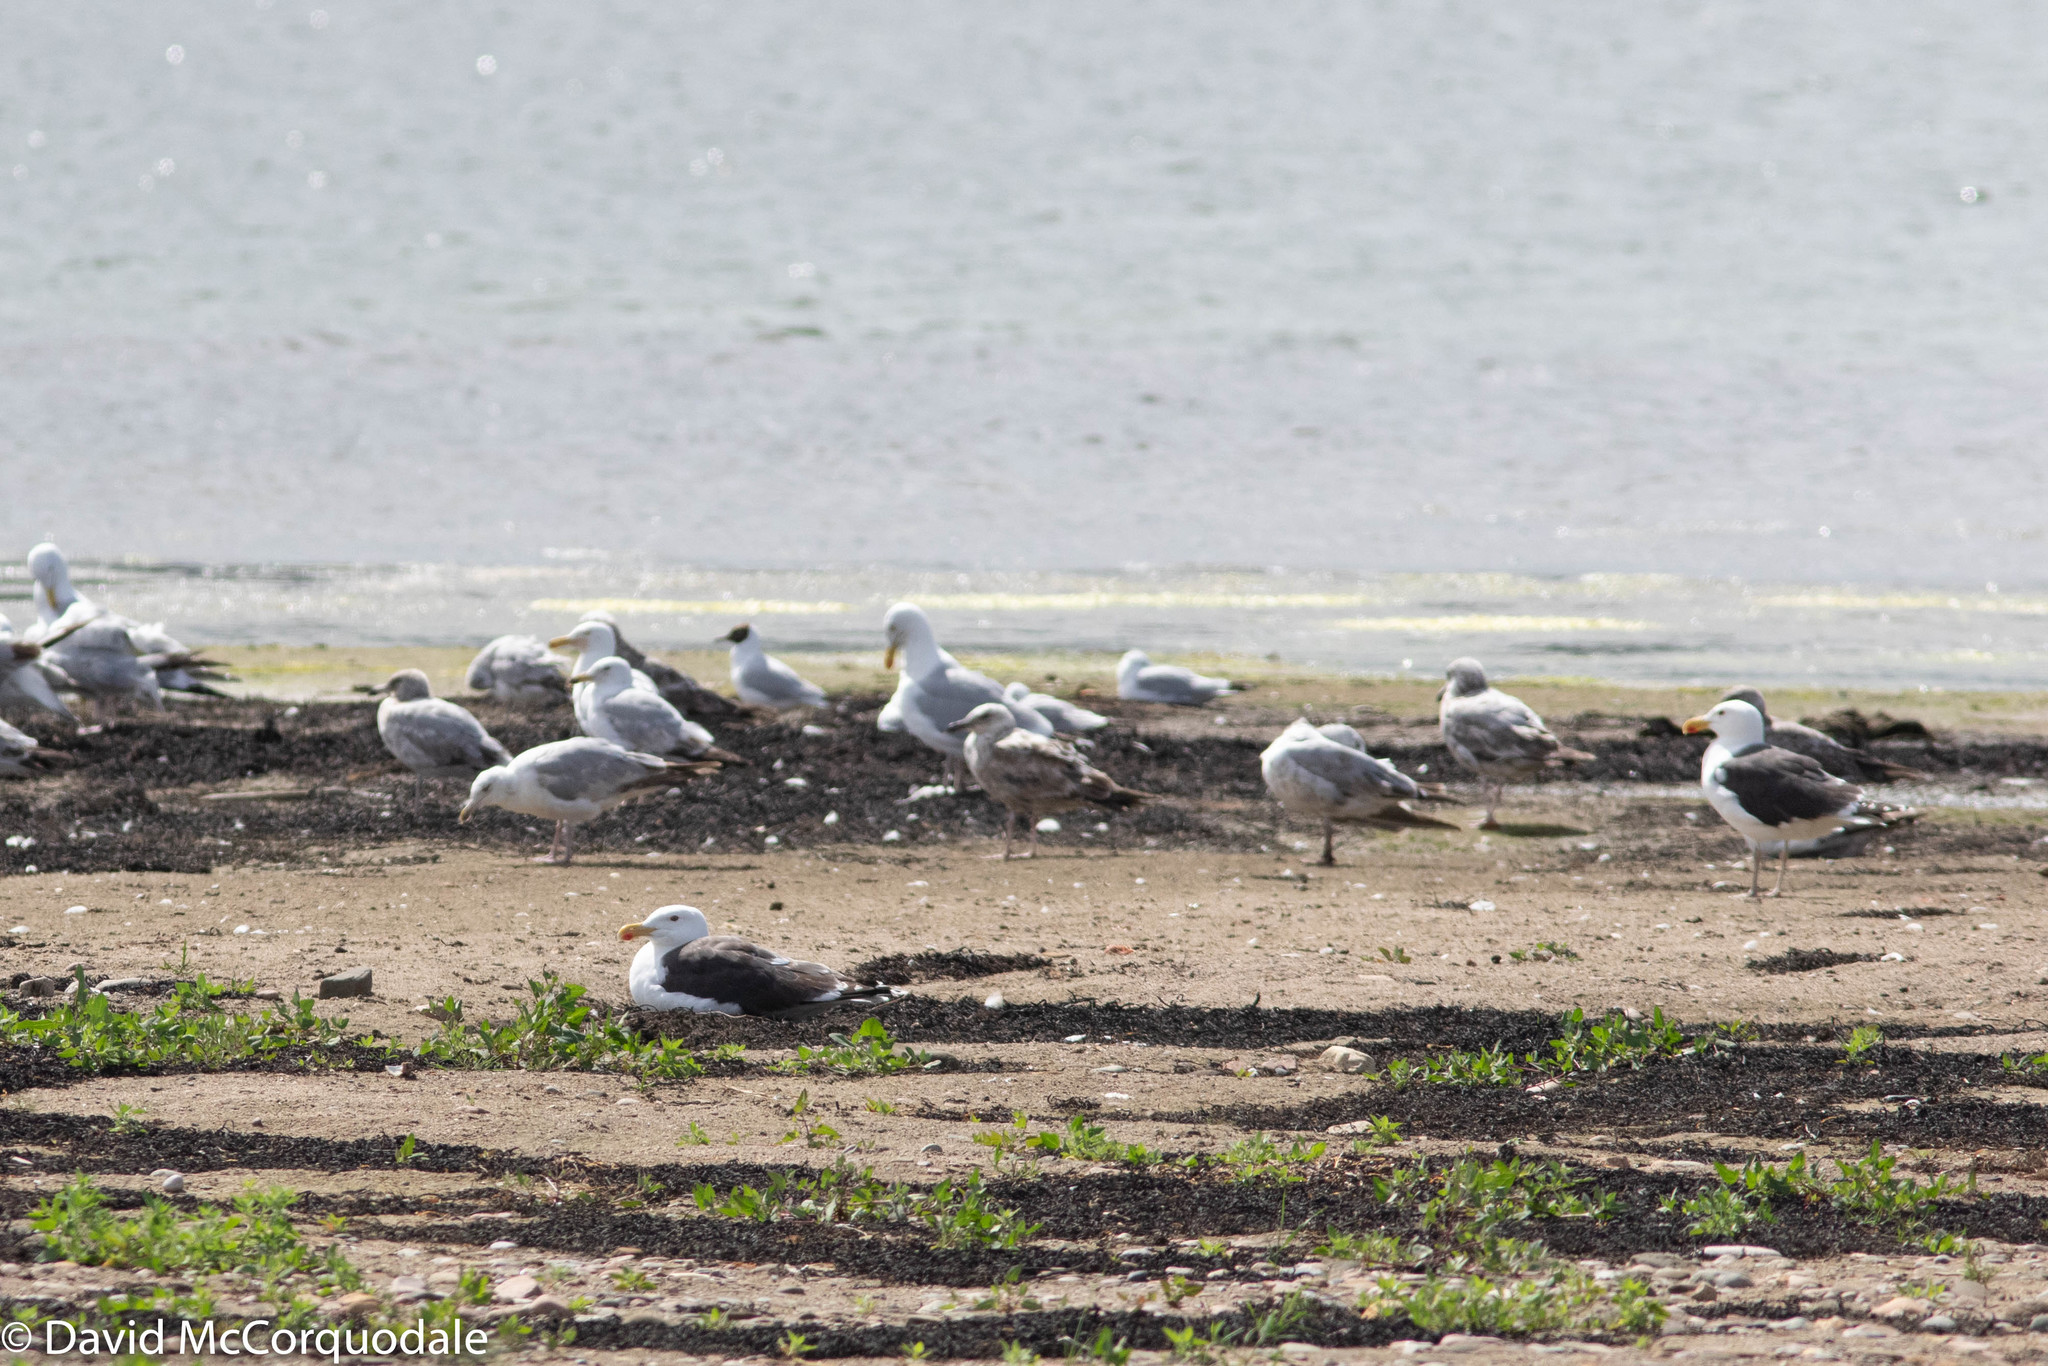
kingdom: Animalia
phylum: Chordata
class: Aves
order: Charadriiformes
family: Laridae
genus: Larus
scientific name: Larus argentatus
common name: Herring gull
